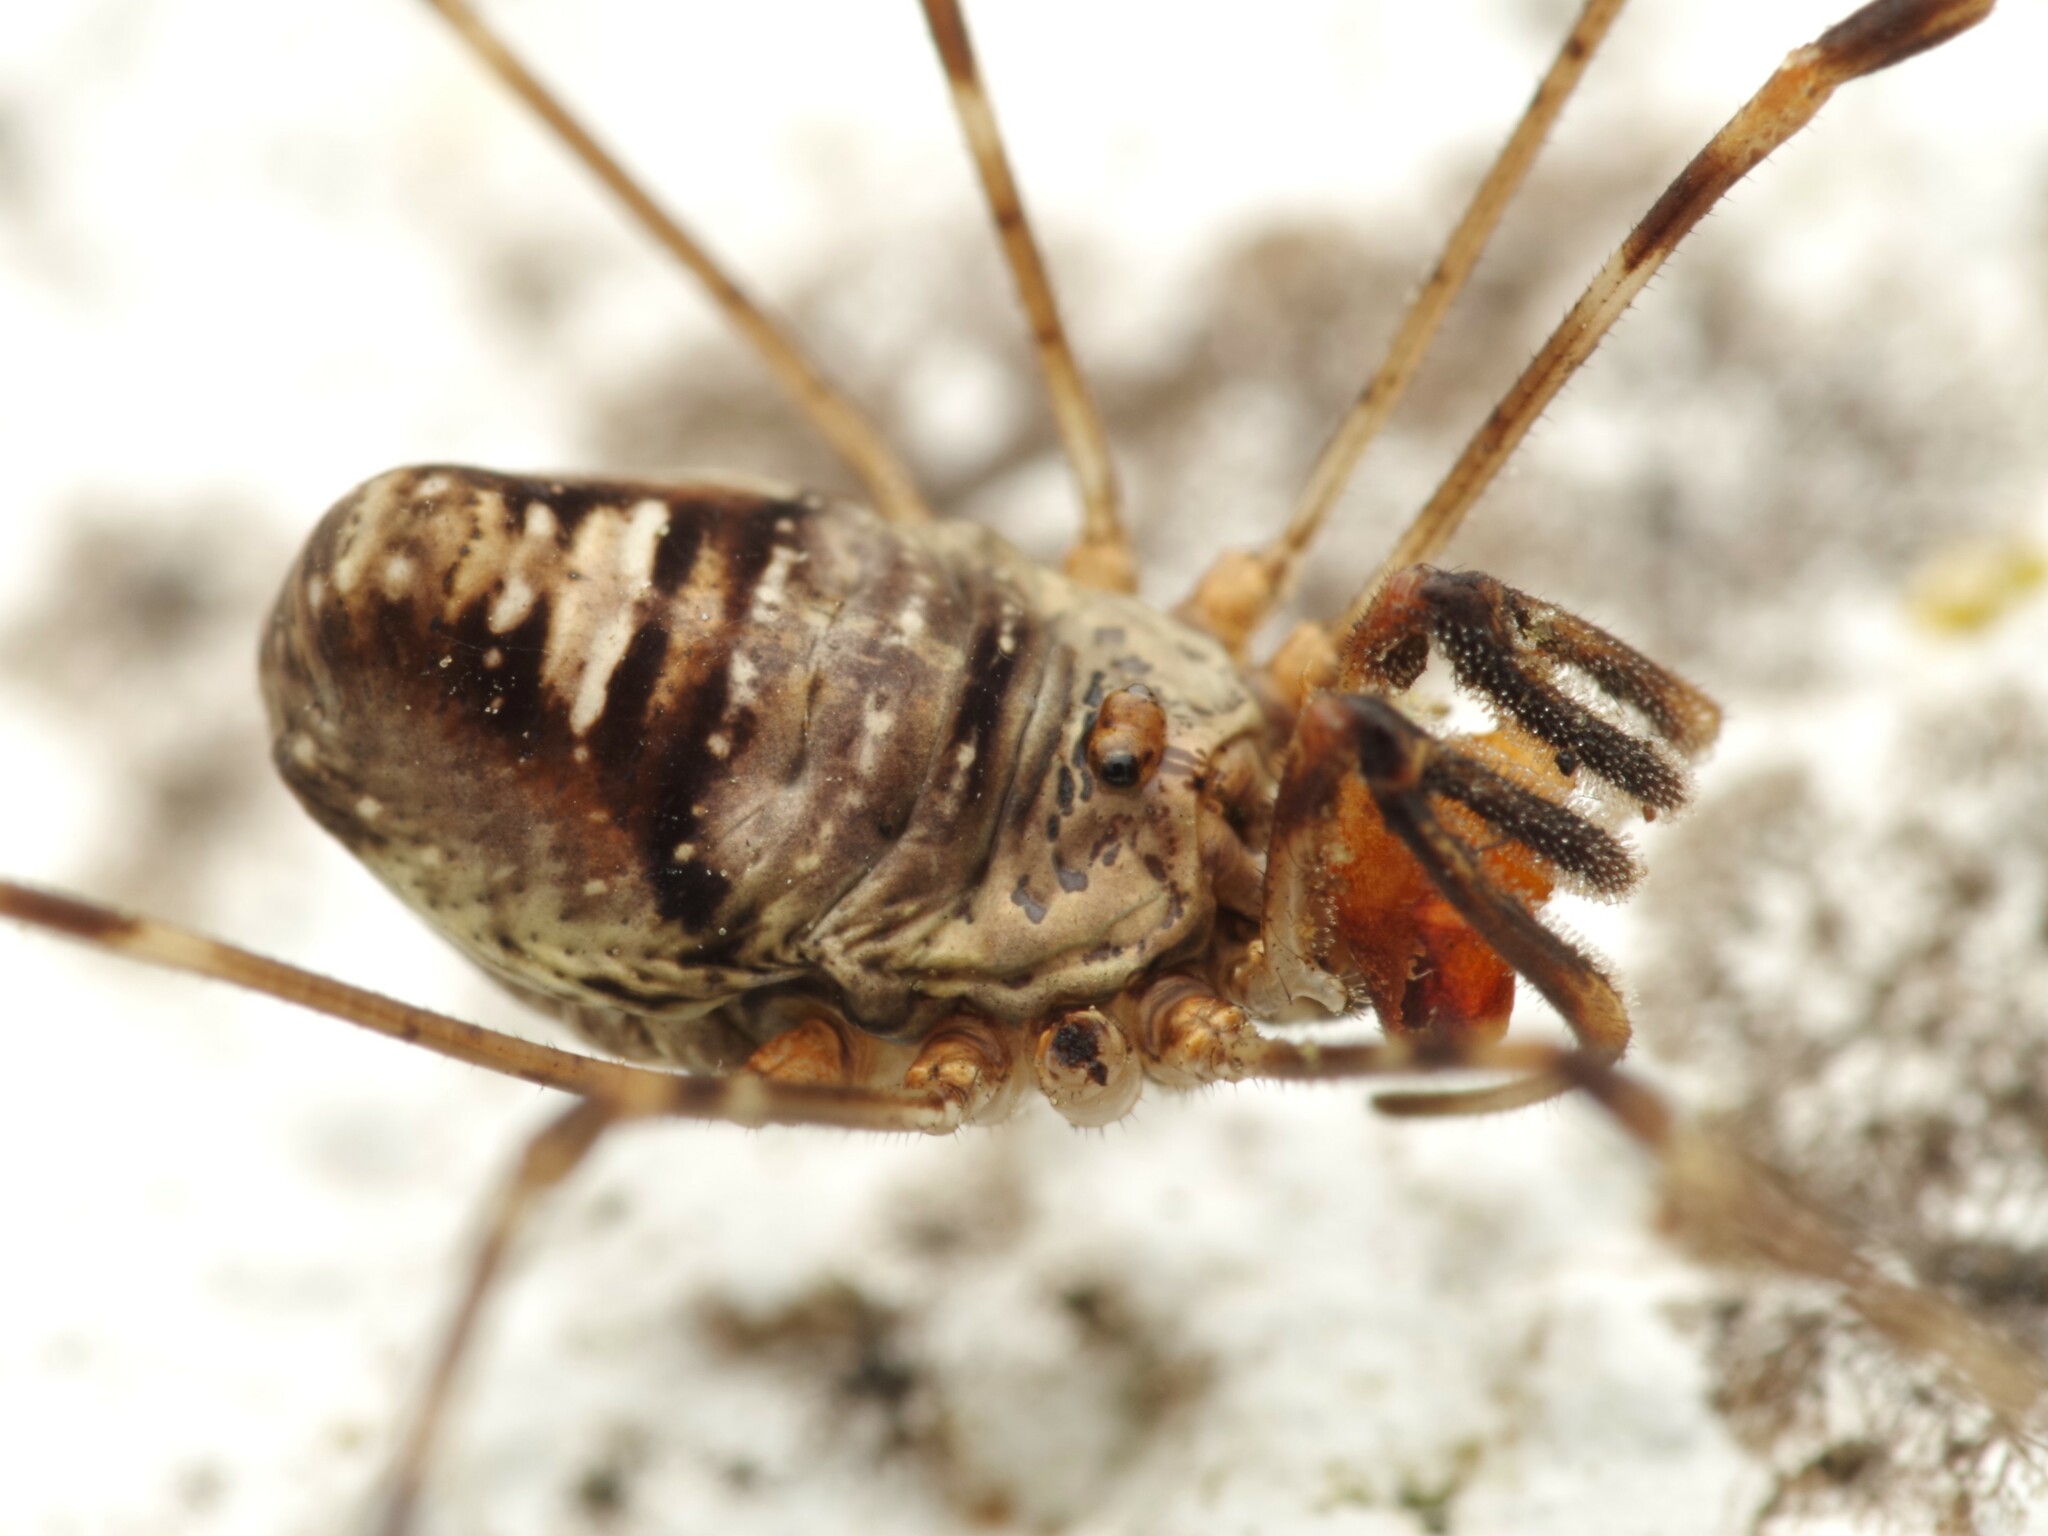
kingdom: Animalia
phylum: Arthropoda
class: Arachnida
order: Opiliones
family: Phalangiidae
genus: Dicranopalpus
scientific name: Dicranopalpus ramosus
